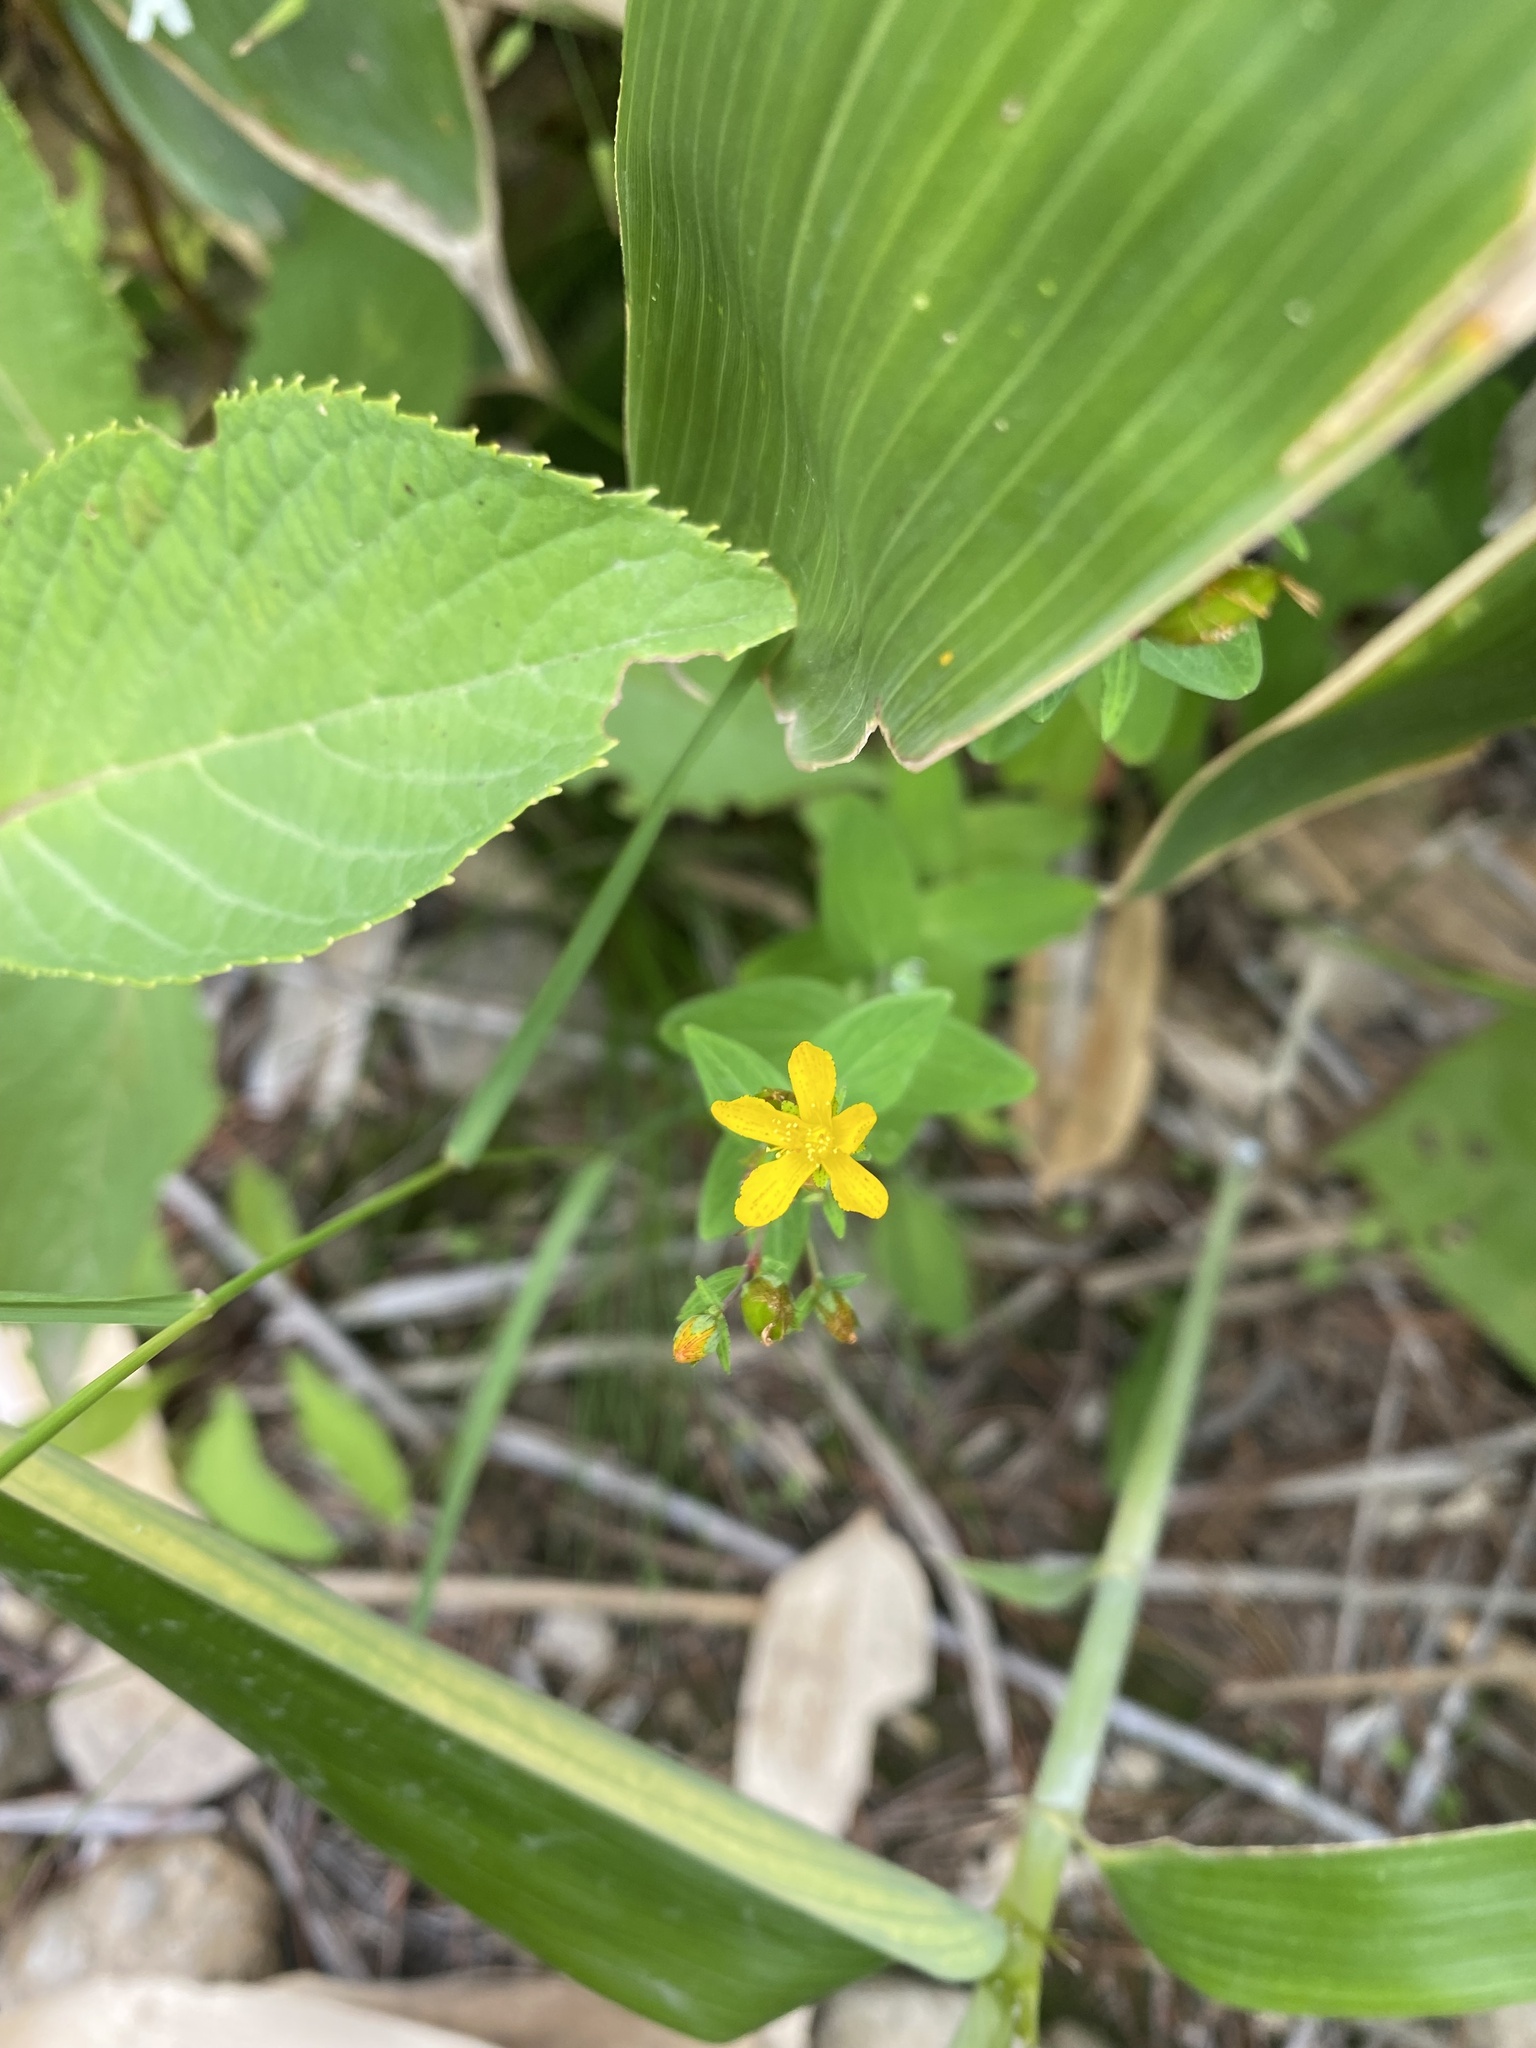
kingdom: Plantae
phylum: Tracheophyta
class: Magnoliopsida
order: Malpighiales
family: Hypericaceae
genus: Hypericum
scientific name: Hypericum kamtschaticum
